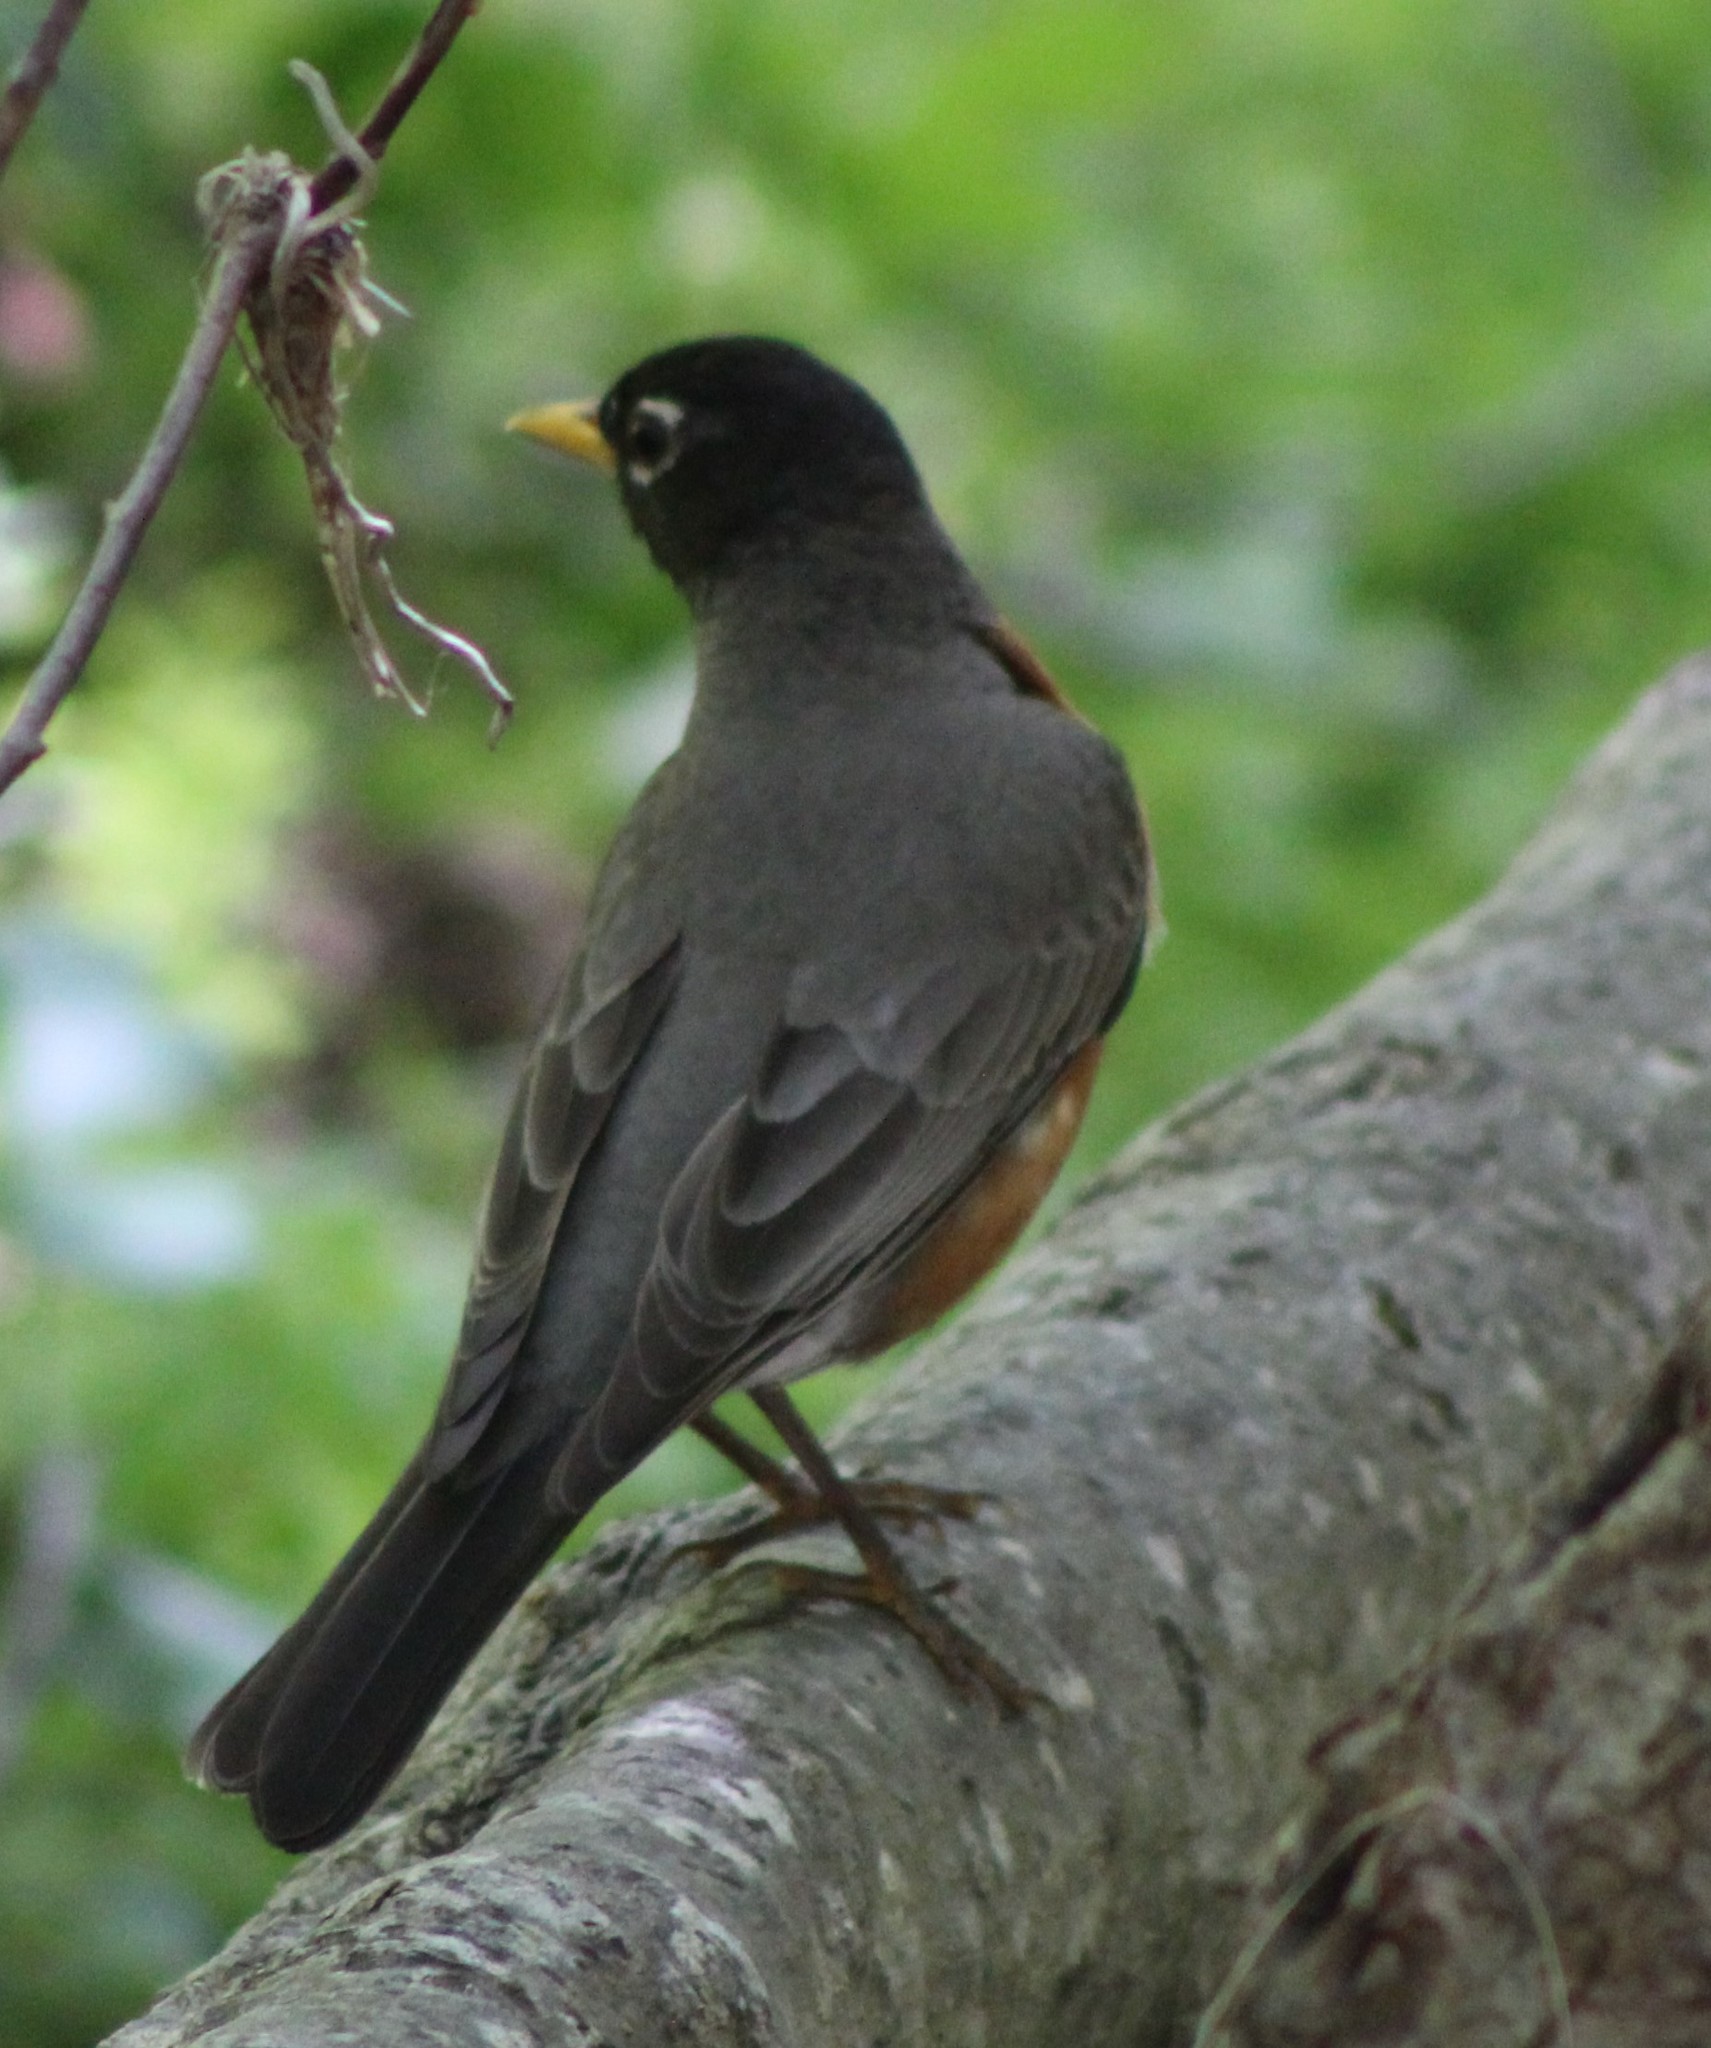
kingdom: Animalia
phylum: Chordata
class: Aves
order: Passeriformes
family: Turdidae
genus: Turdus
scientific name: Turdus migratorius
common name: American robin
